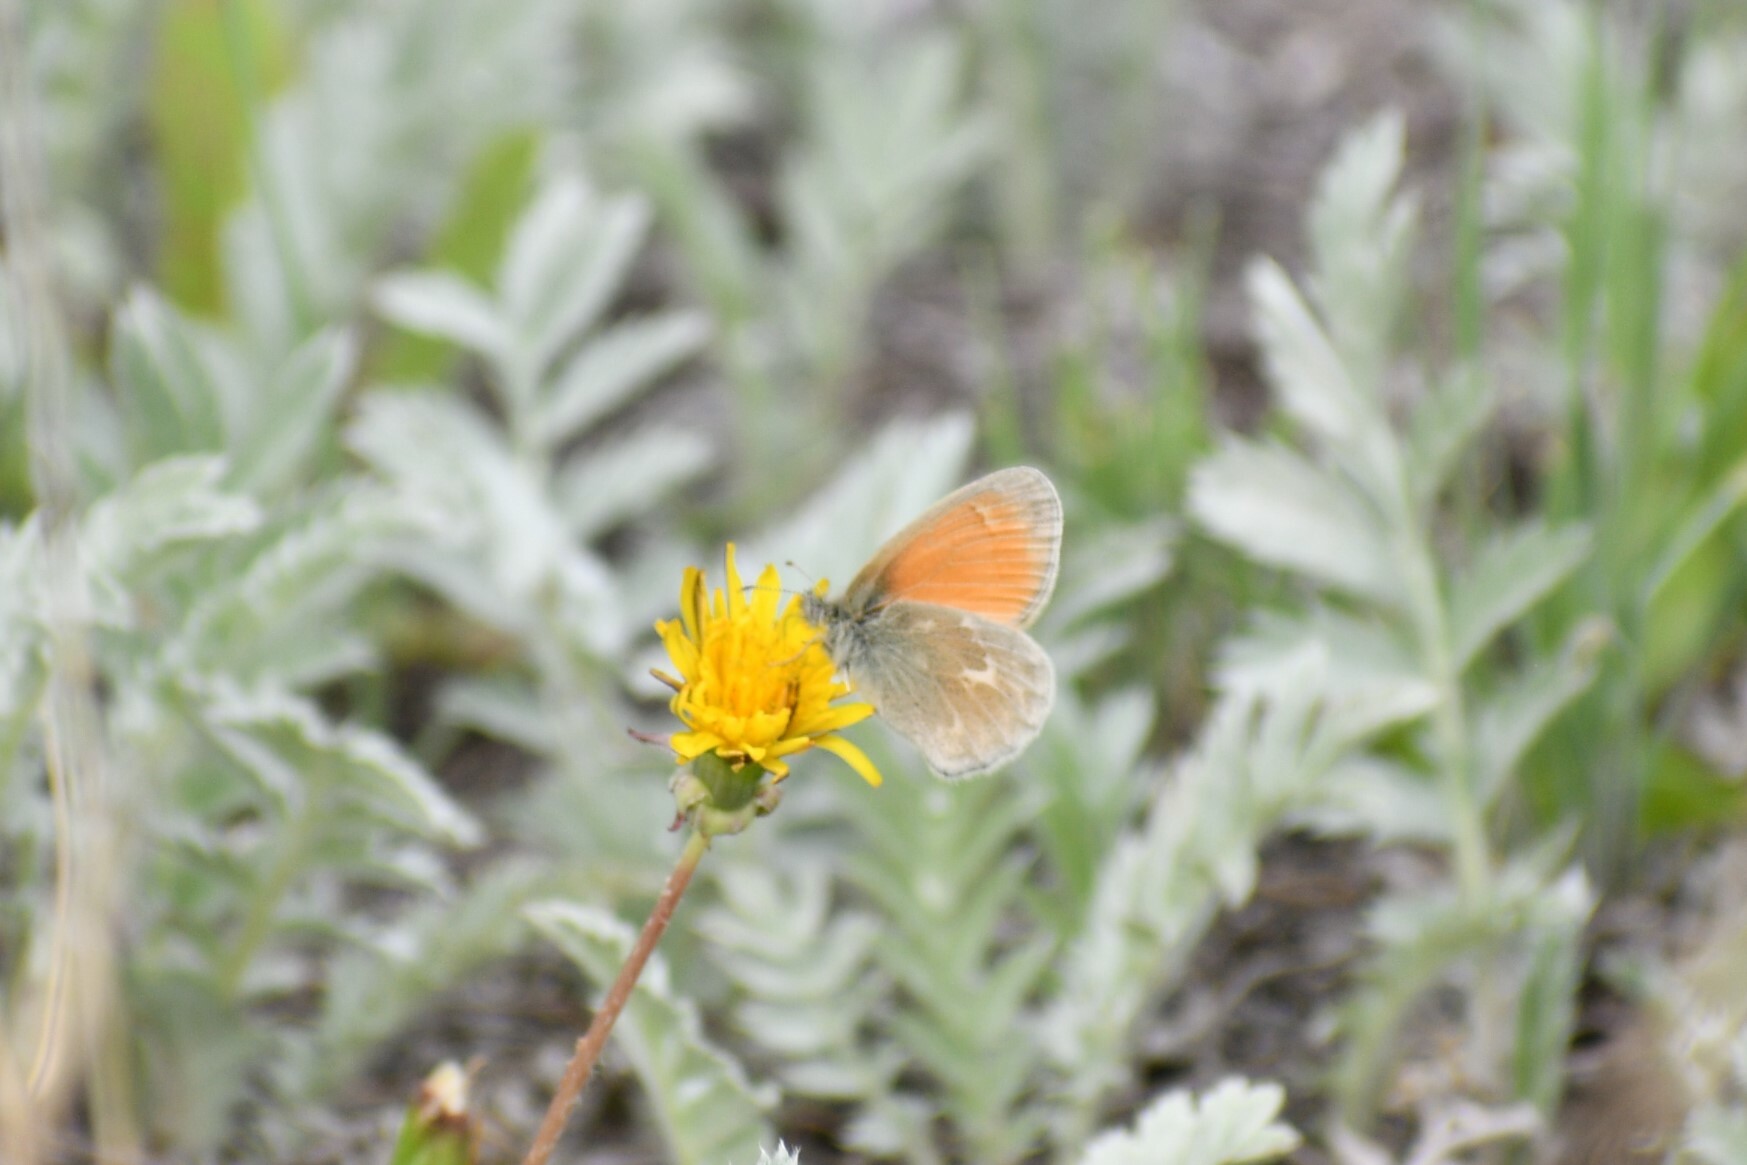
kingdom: Animalia
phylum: Arthropoda
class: Insecta
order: Lepidoptera
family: Nymphalidae
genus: Coenonympha
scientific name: Coenonympha california
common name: Common ringlet
